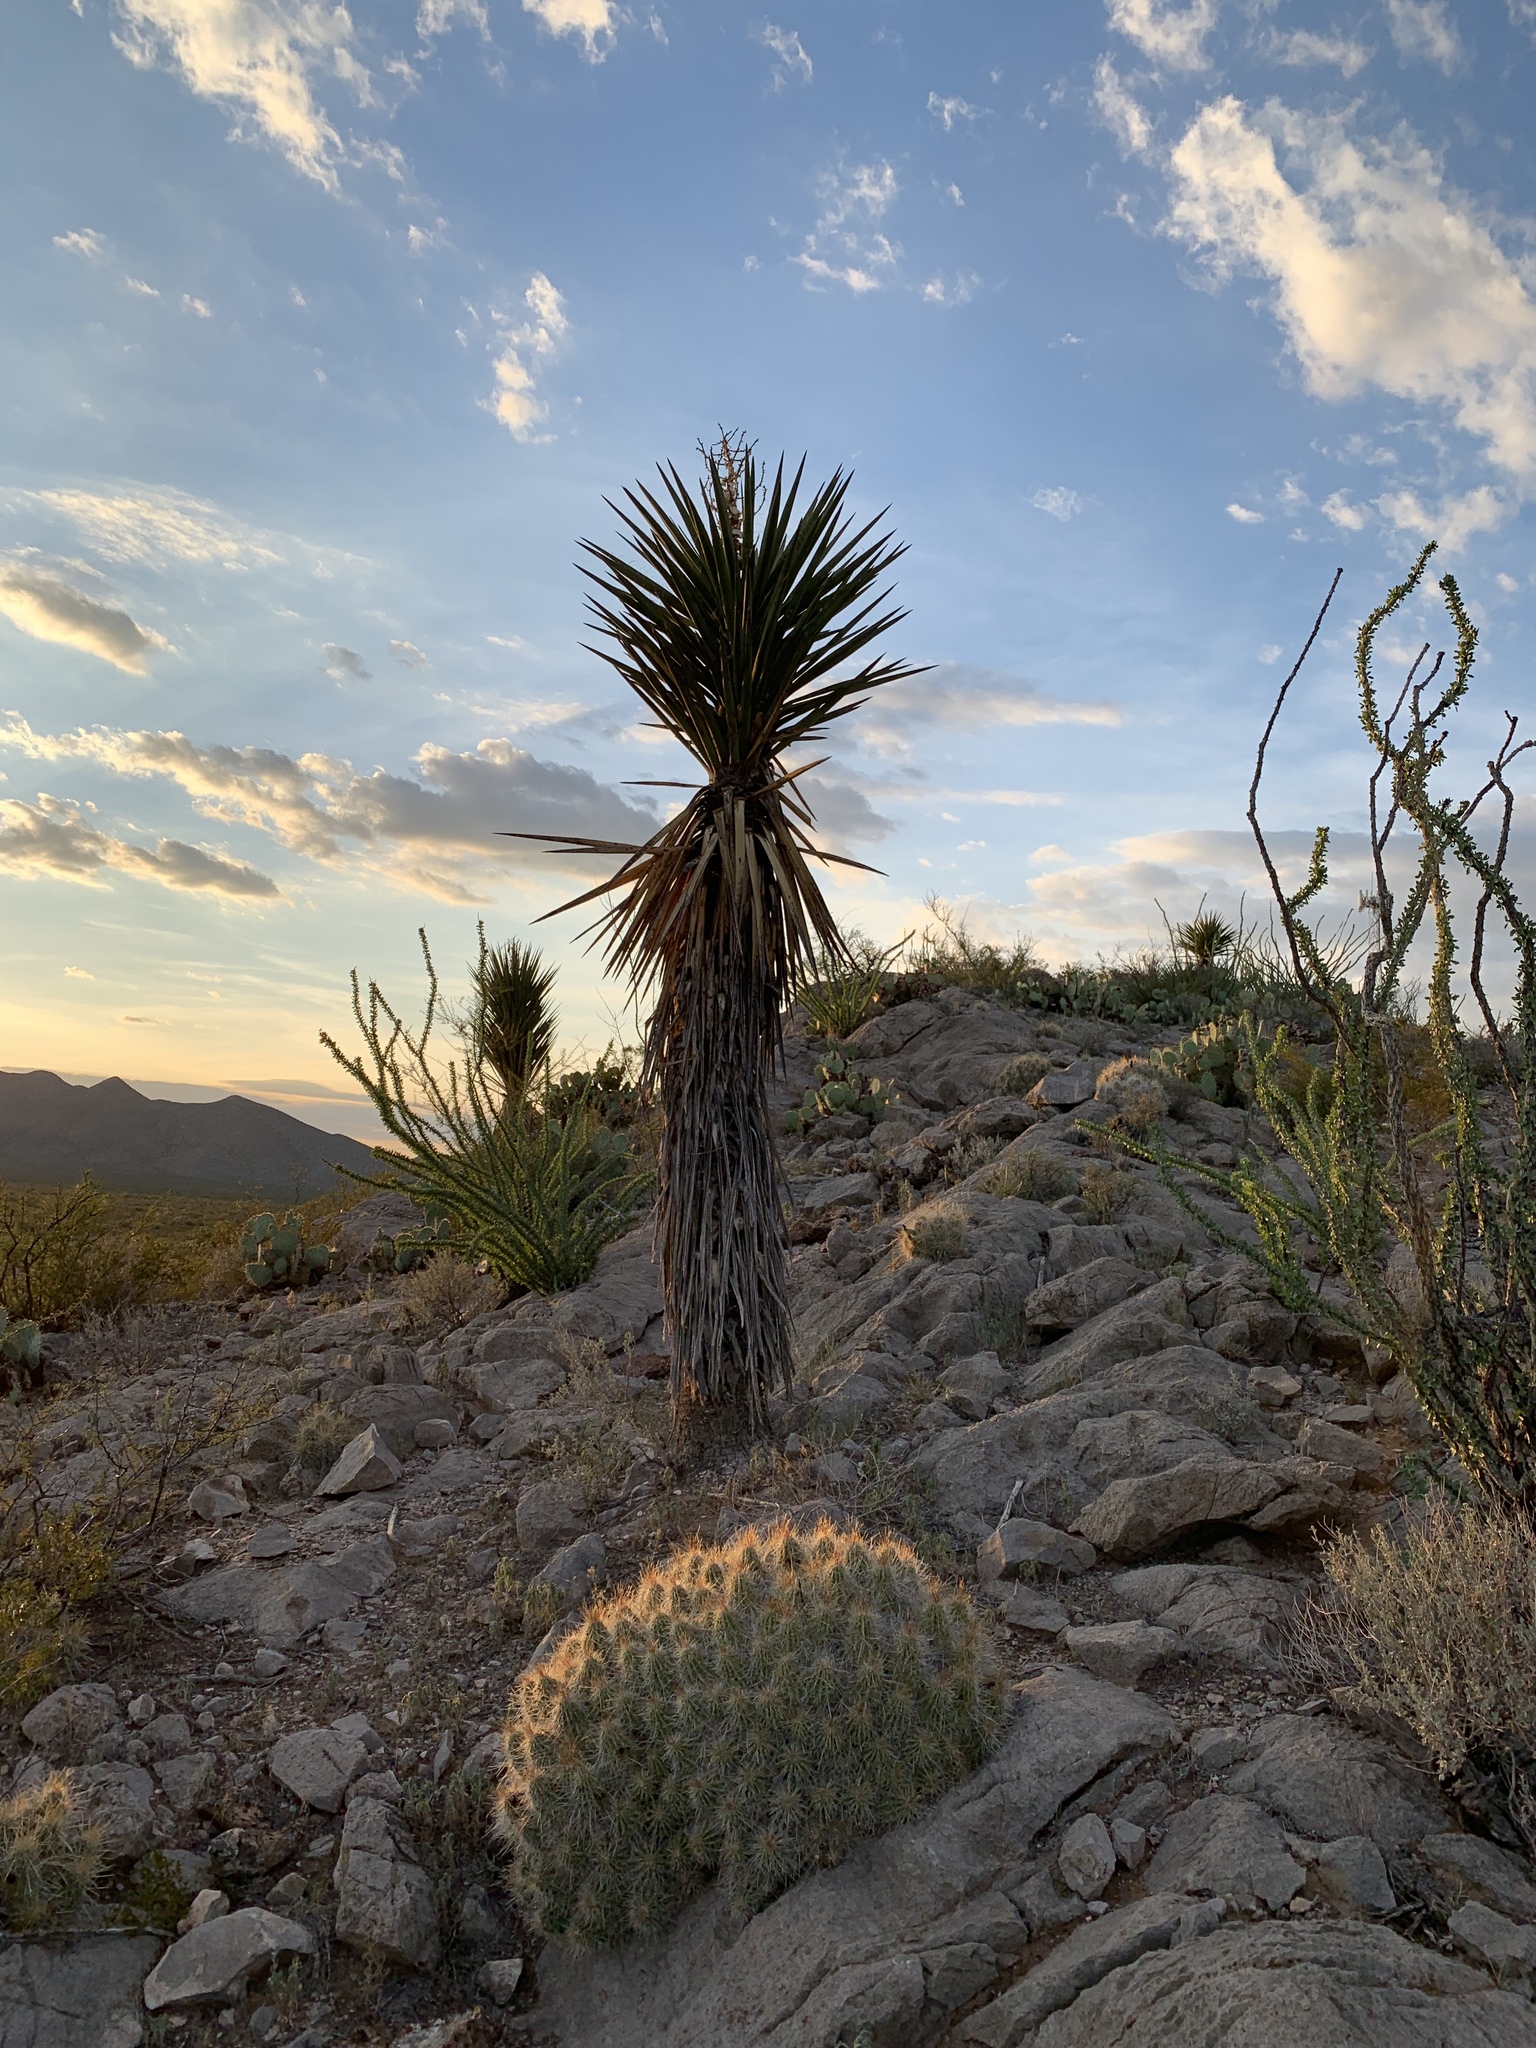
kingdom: Plantae
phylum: Tracheophyta
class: Liliopsida
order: Asparagales
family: Asparagaceae
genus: Yucca
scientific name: Yucca treculiana
